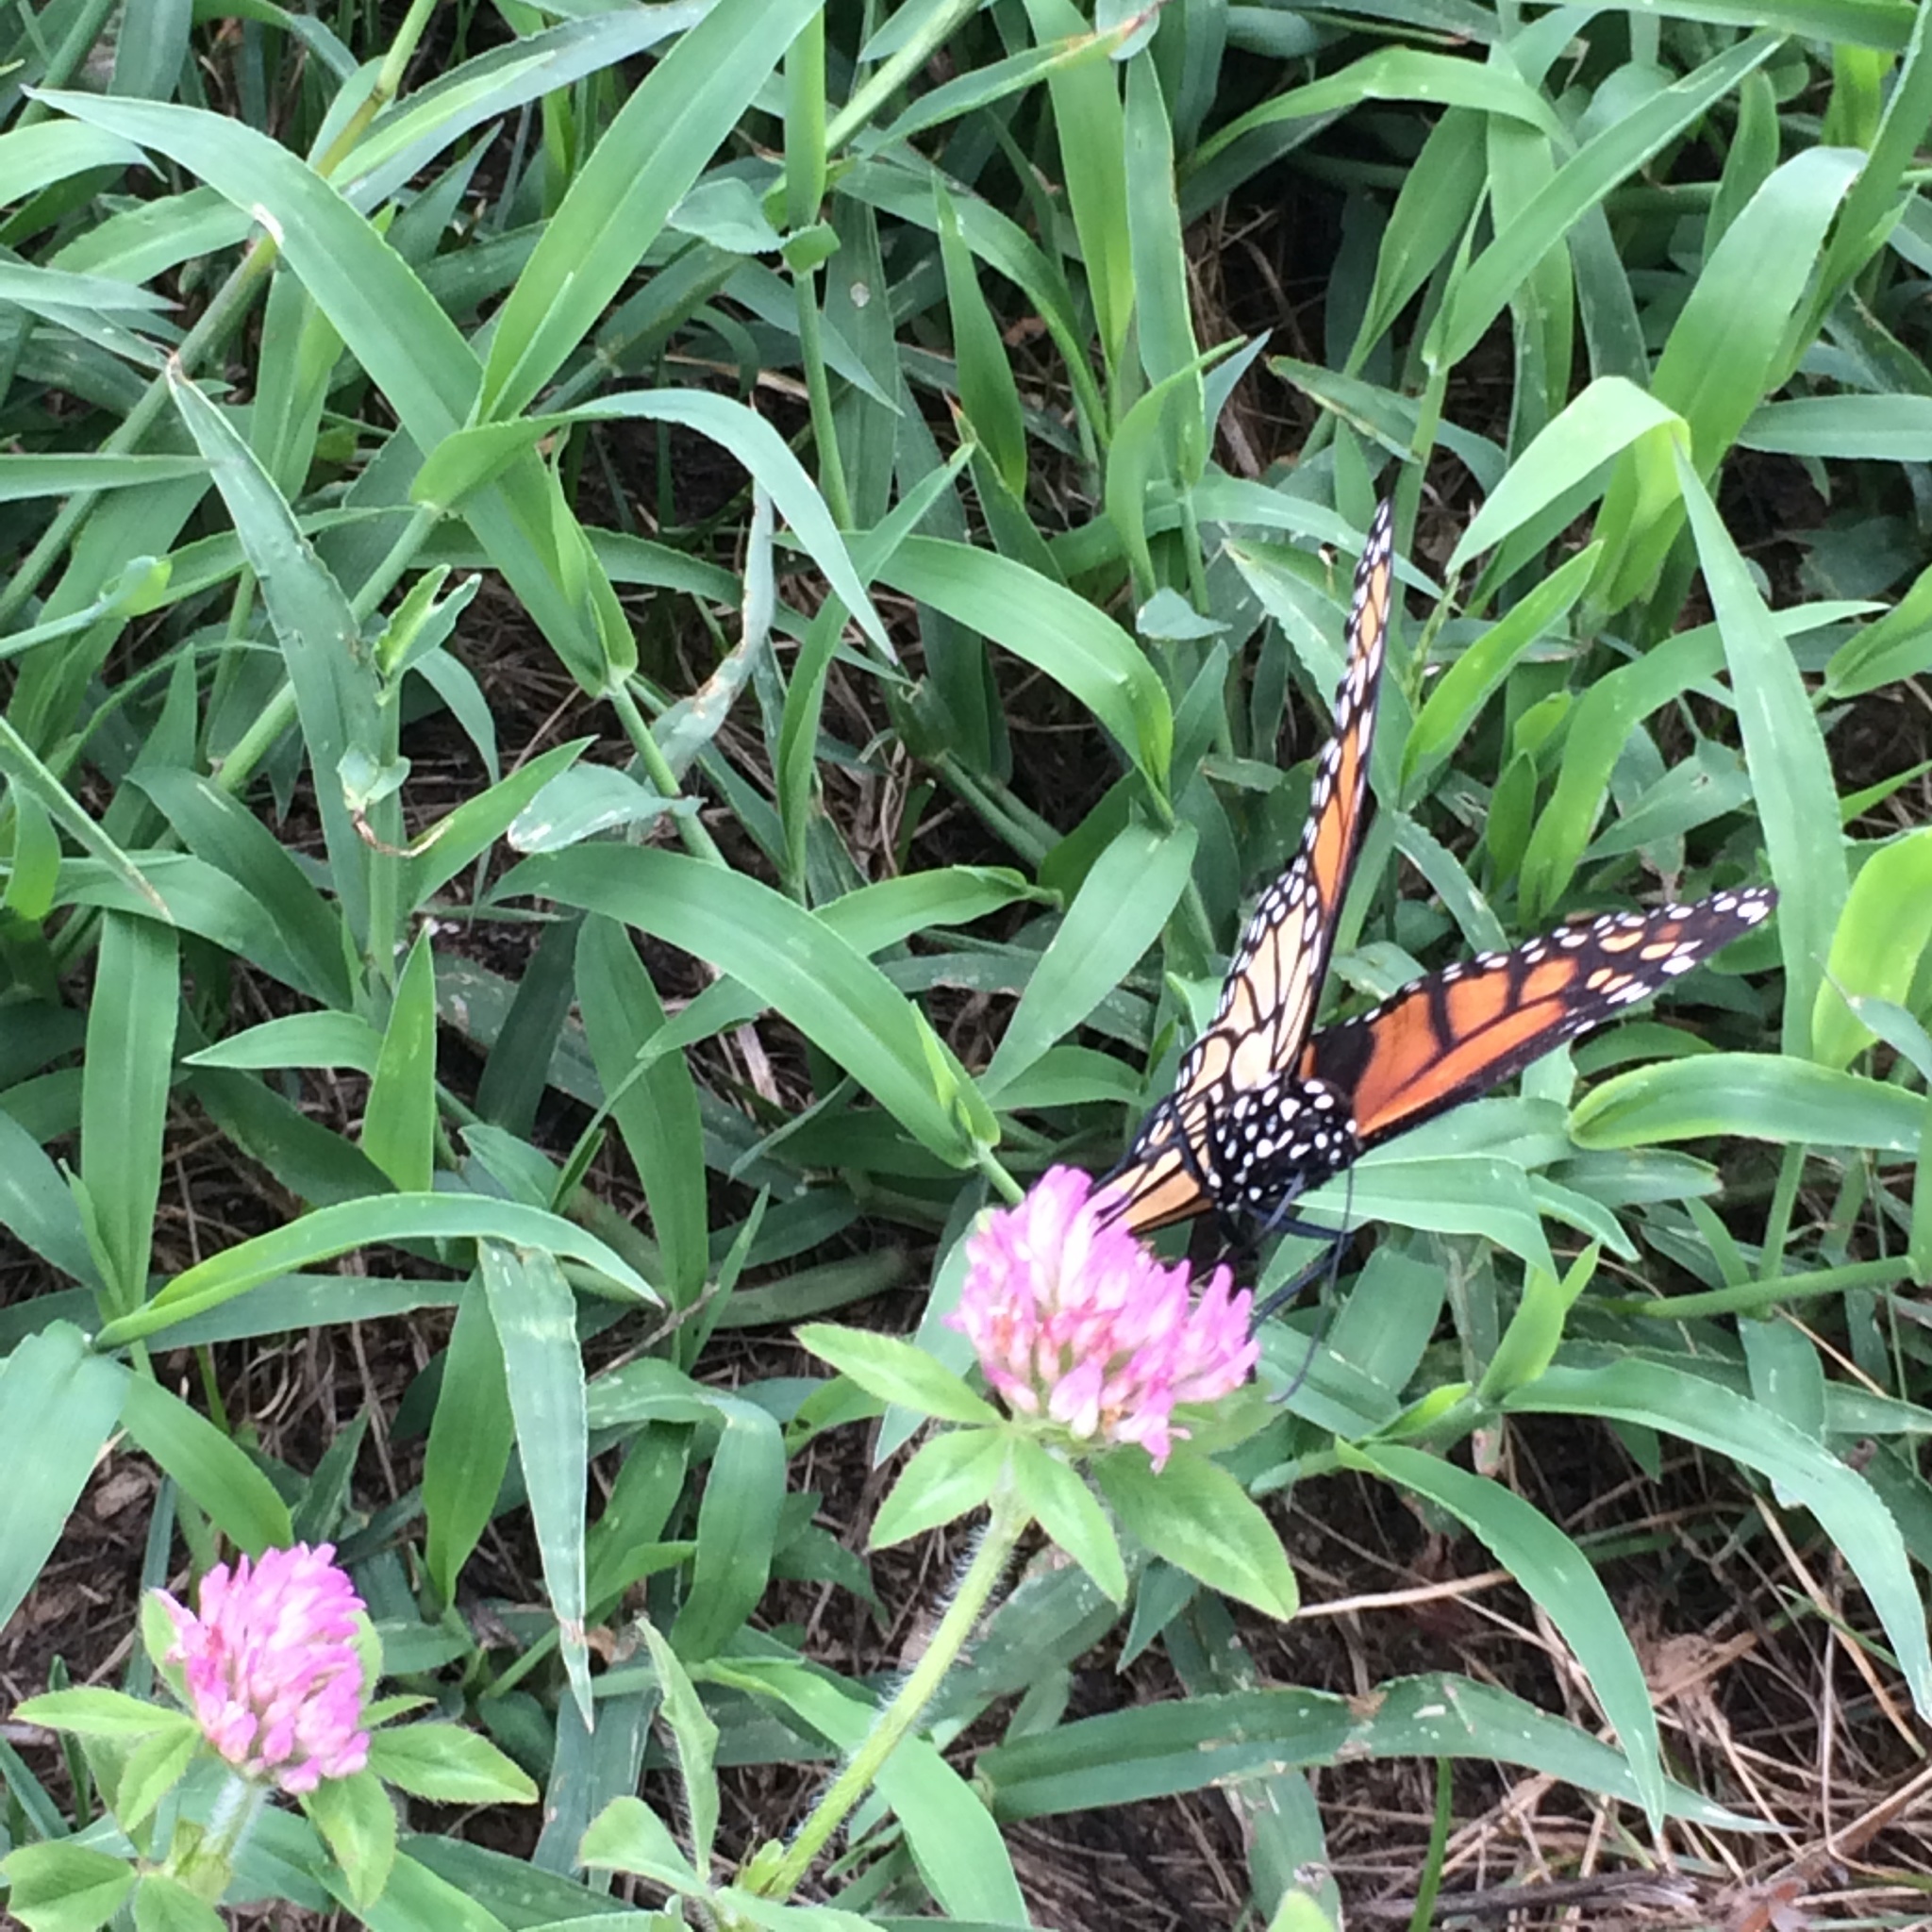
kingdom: Animalia
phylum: Arthropoda
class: Insecta
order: Lepidoptera
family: Nymphalidae
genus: Danaus
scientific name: Danaus plexippus
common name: Monarch
